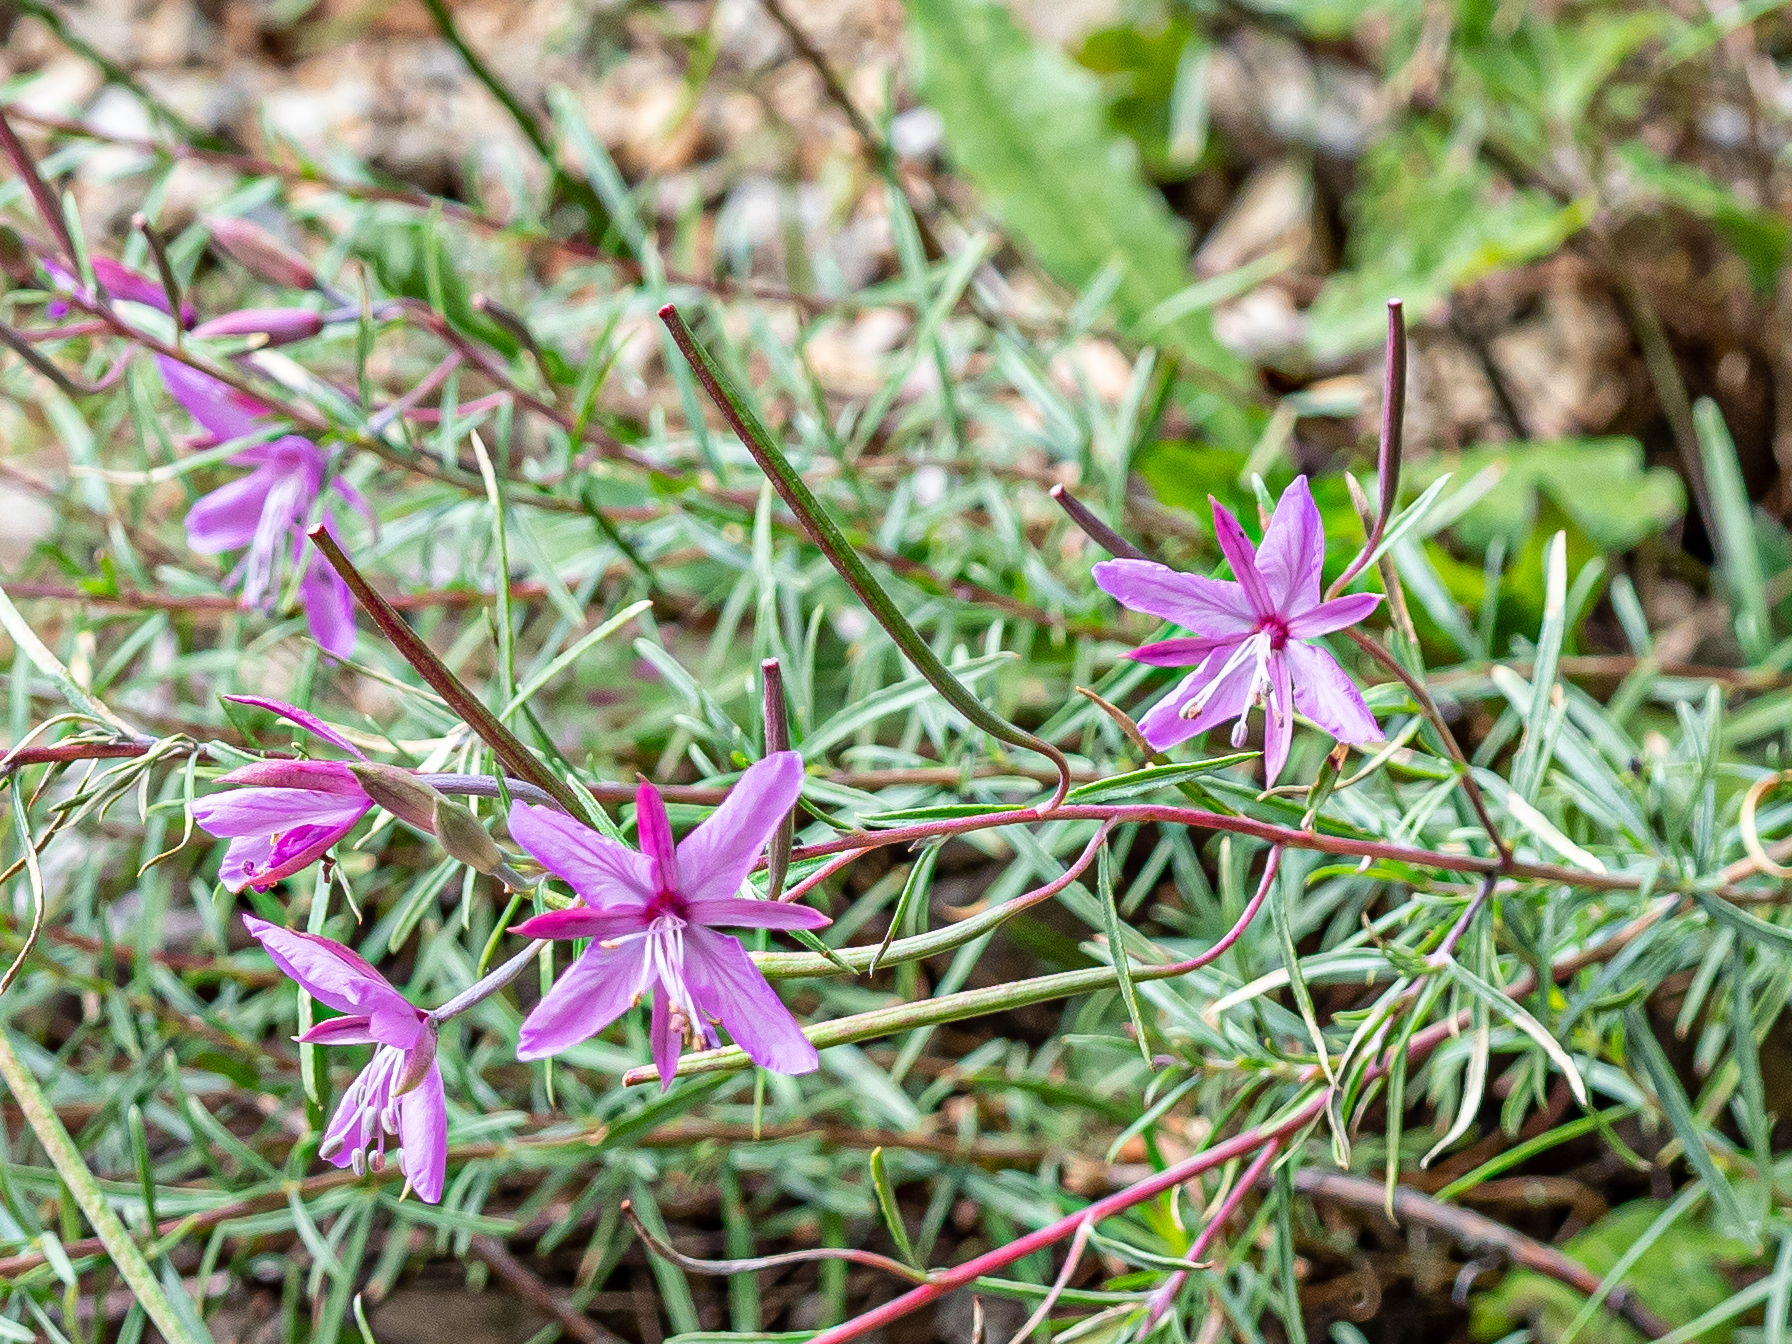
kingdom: Plantae
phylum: Tracheophyta
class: Magnoliopsida
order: Myrtales
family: Onagraceae
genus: Chamaenerion
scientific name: Chamaenerion dodonaei
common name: Rosemary-leaved willowherb
